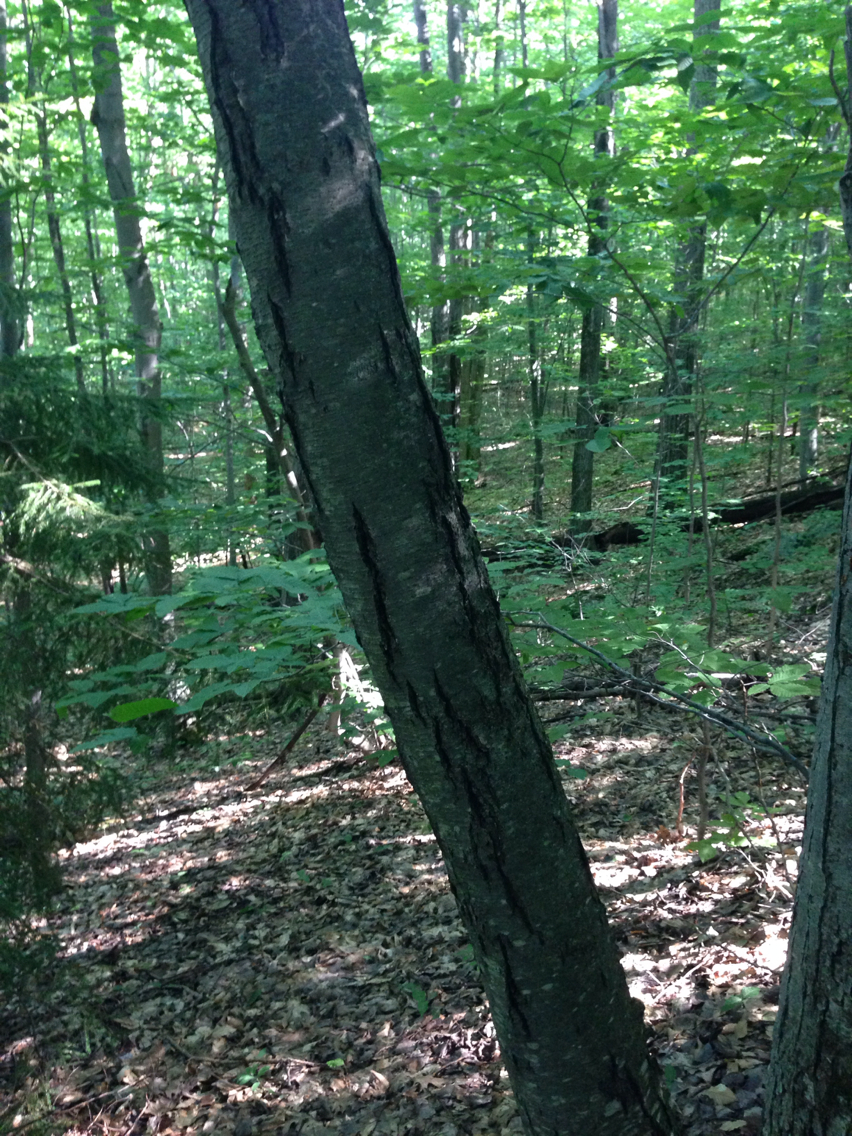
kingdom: Plantae
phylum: Tracheophyta
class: Magnoliopsida
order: Fagales
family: Betulaceae
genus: Betula
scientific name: Betula lenta
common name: Black birch
